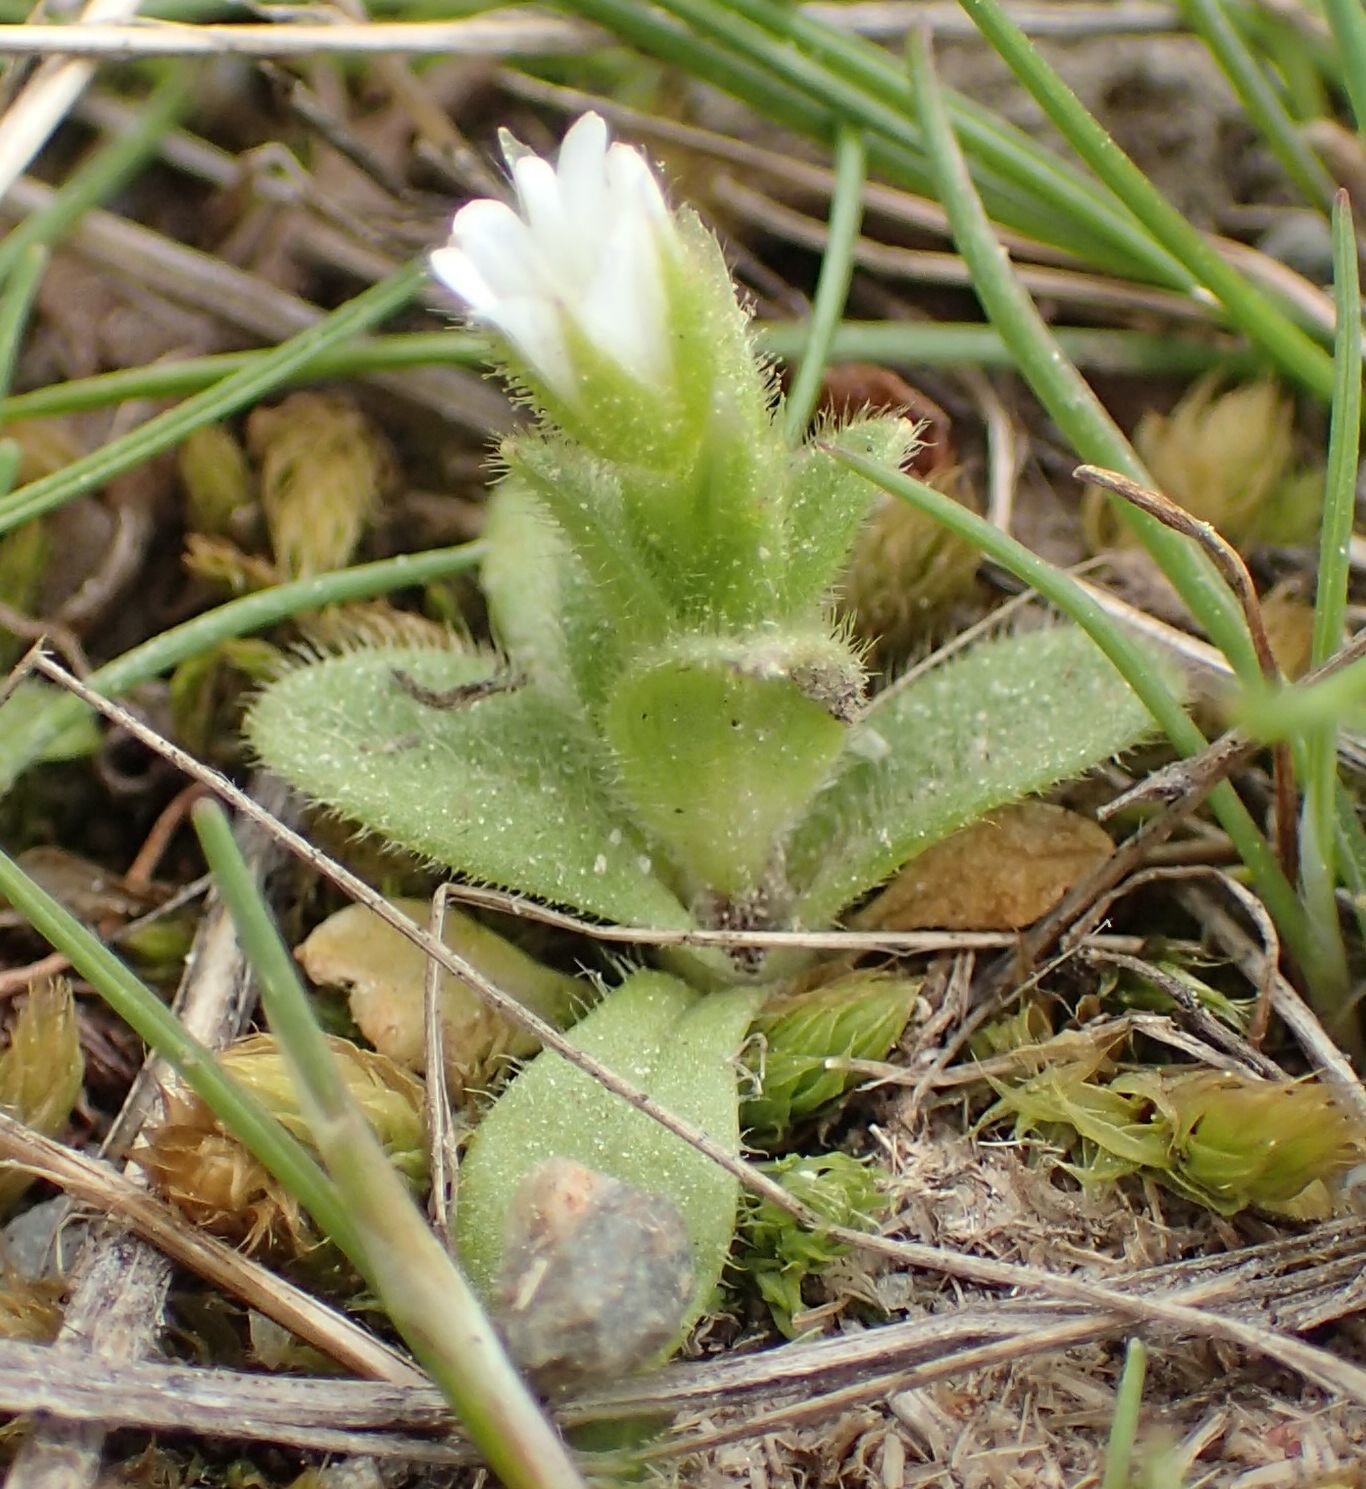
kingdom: Plantae
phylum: Tracheophyta
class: Magnoliopsida
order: Caryophyllales
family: Caryophyllaceae
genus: Cerastium
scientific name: Cerastium semidecandrum
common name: Little mouse-ear
